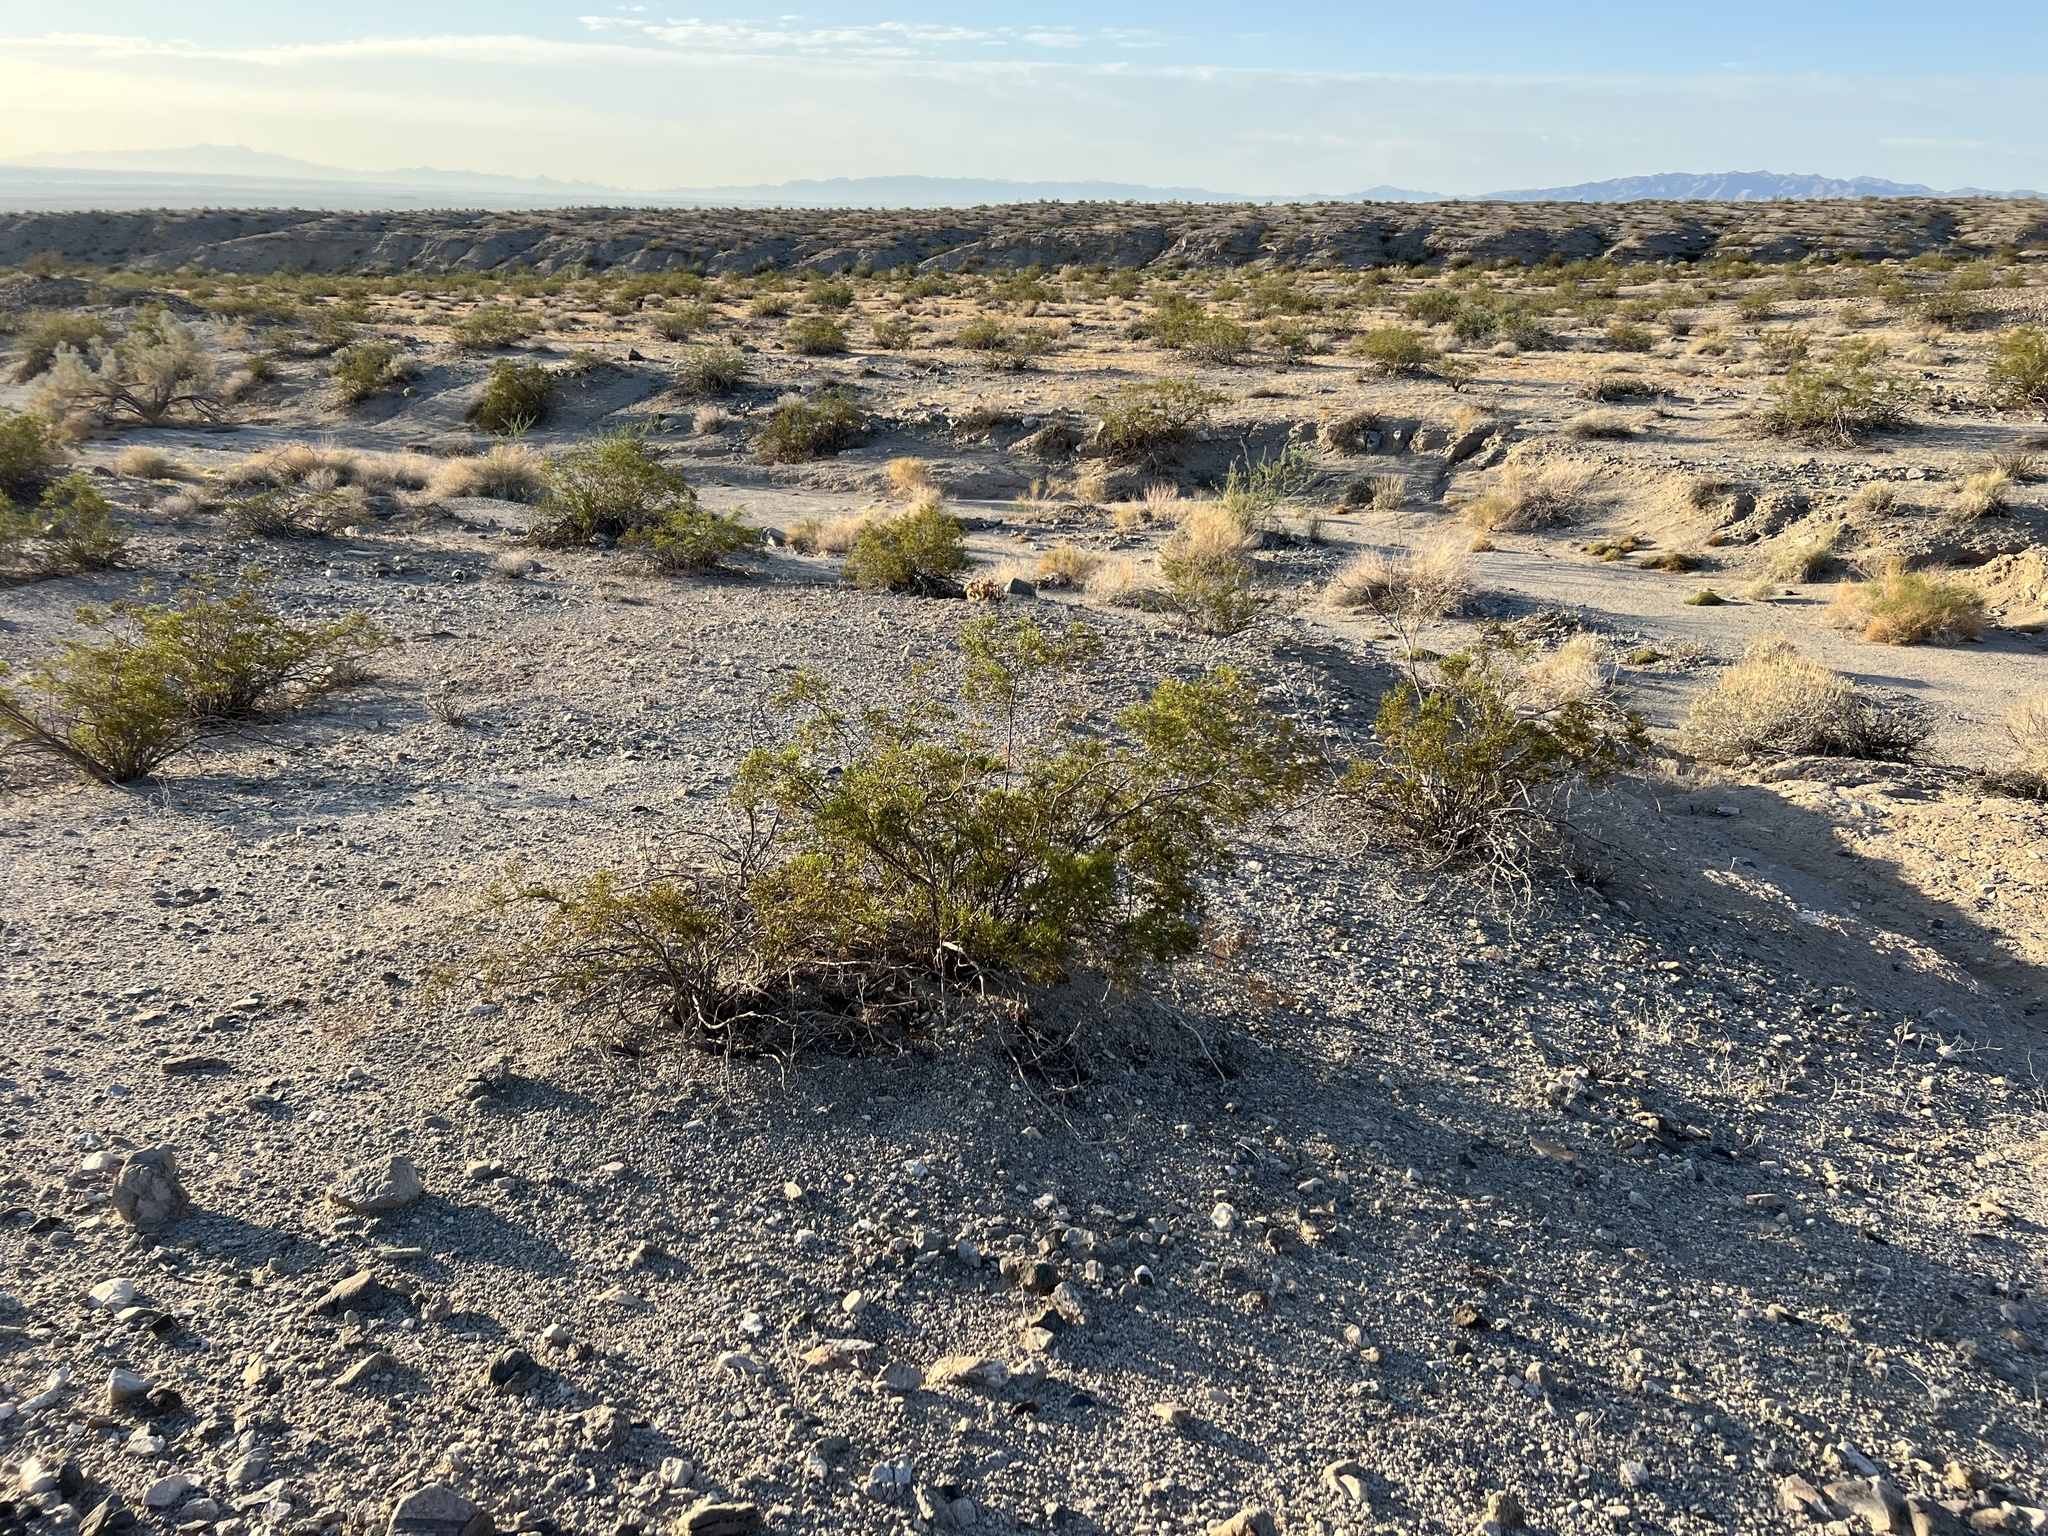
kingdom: Plantae
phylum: Tracheophyta
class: Magnoliopsida
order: Zygophyllales
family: Zygophyllaceae
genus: Larrea
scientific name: Larrea tridentata
